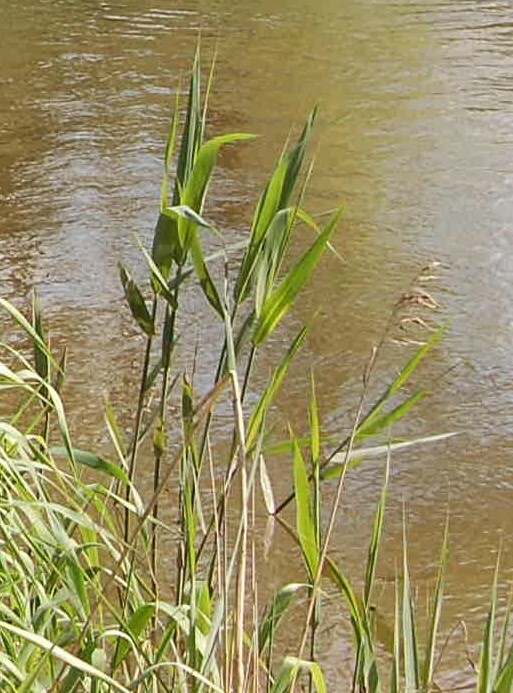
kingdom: Plantae
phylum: Tracheophyta
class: Liliopsida
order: Poales
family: Poaceae
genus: Phragmites
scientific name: Phragmites australis
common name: Common reed
